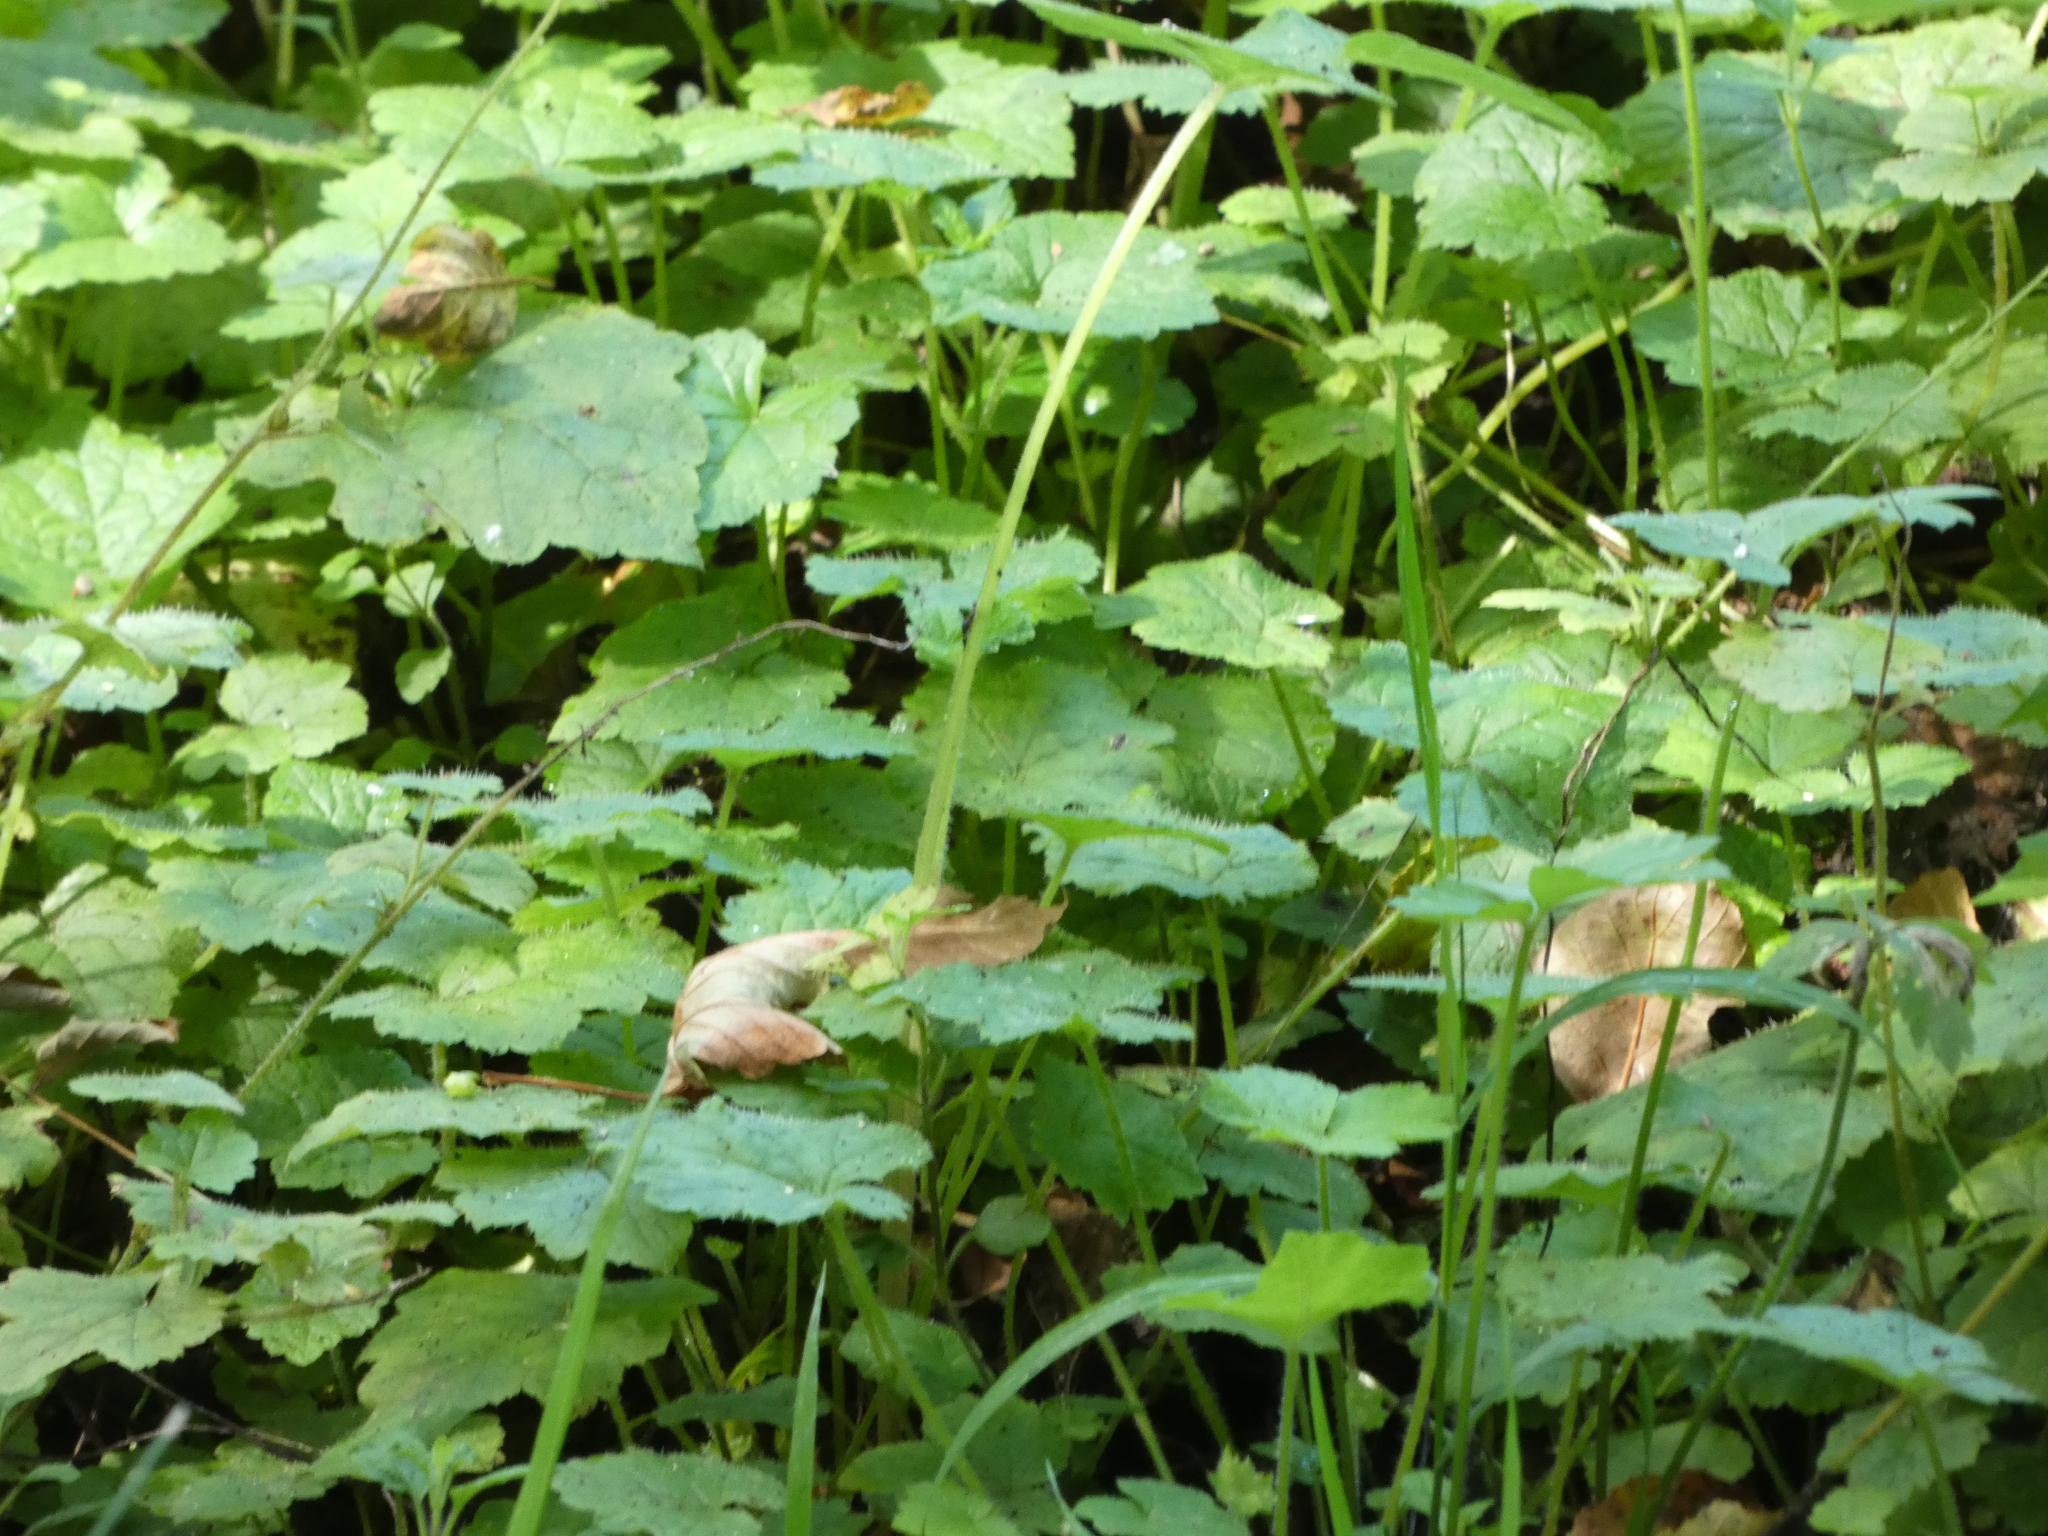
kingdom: Plantae
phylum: Tracheophyta
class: Magnoliopsida
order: Saxifragales
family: Saxifragaceae
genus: Tolmiea
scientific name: Tolmiea menziesii
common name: Pick-a-back-plant
